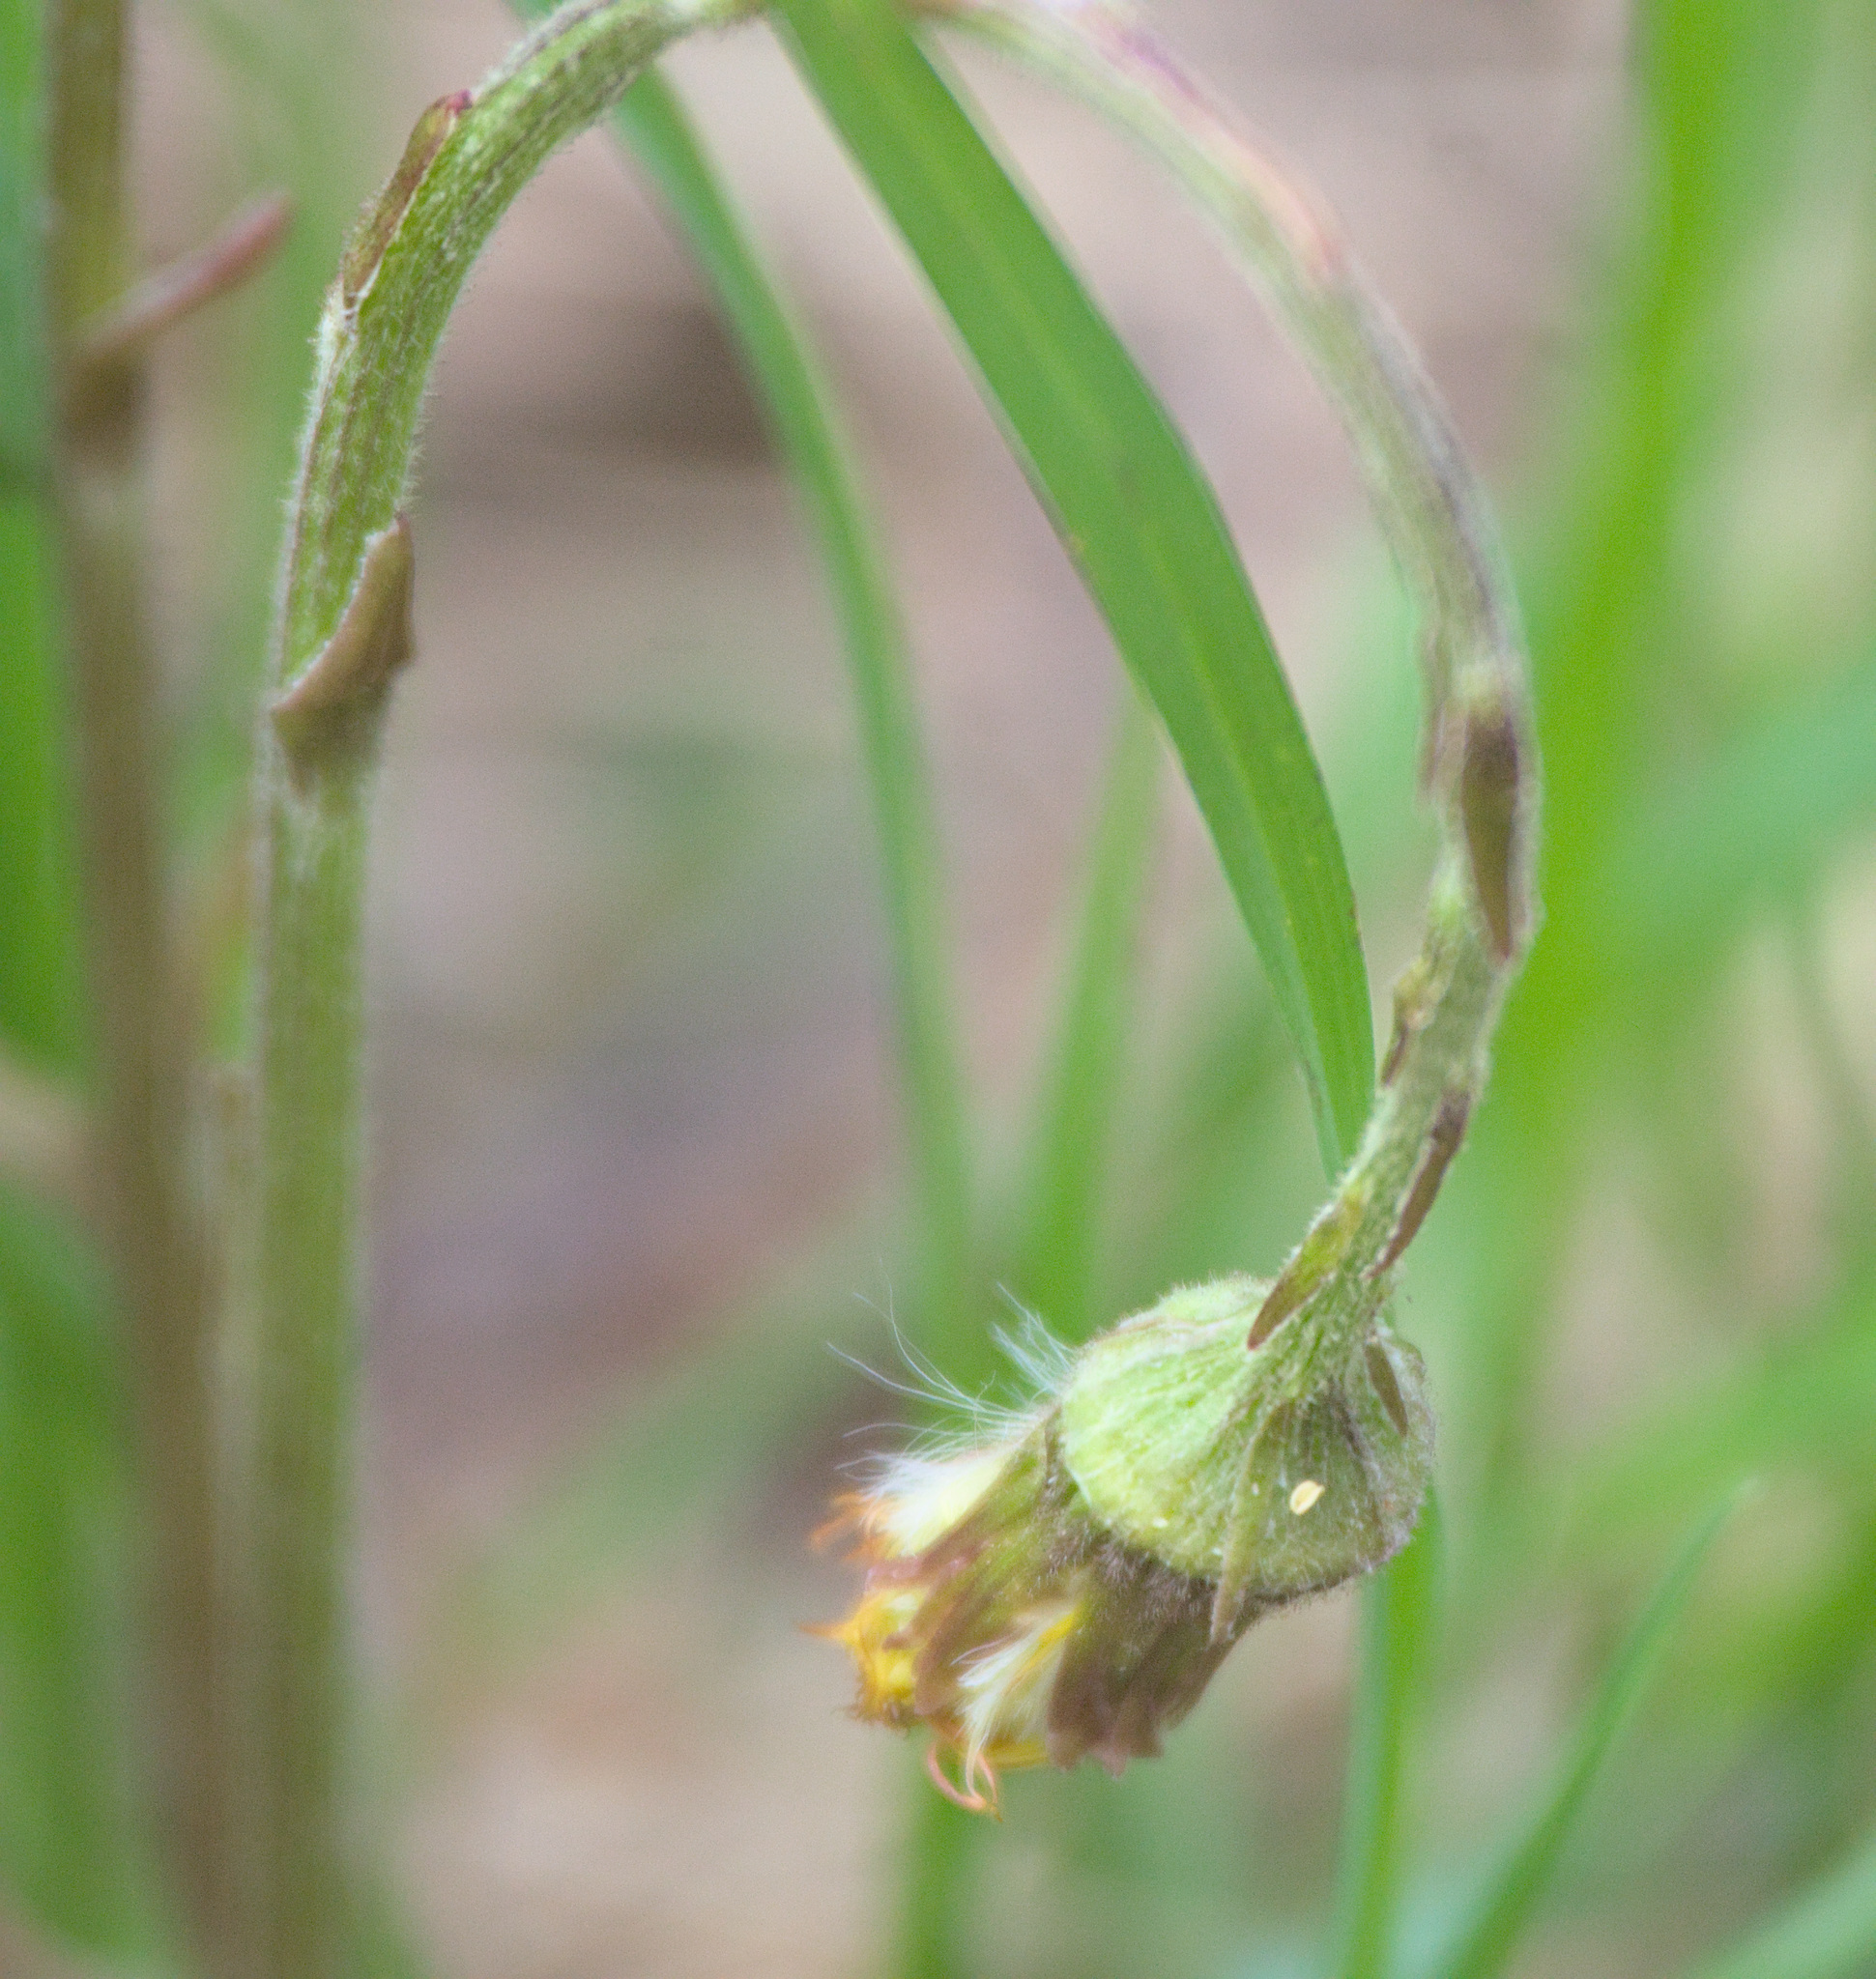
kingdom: Plantae
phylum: Tracheophyta
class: Magnoliopsida
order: Asterales
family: Asteraceae
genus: Tussilago
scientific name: Tussilago farfara
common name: Coltsfoot
